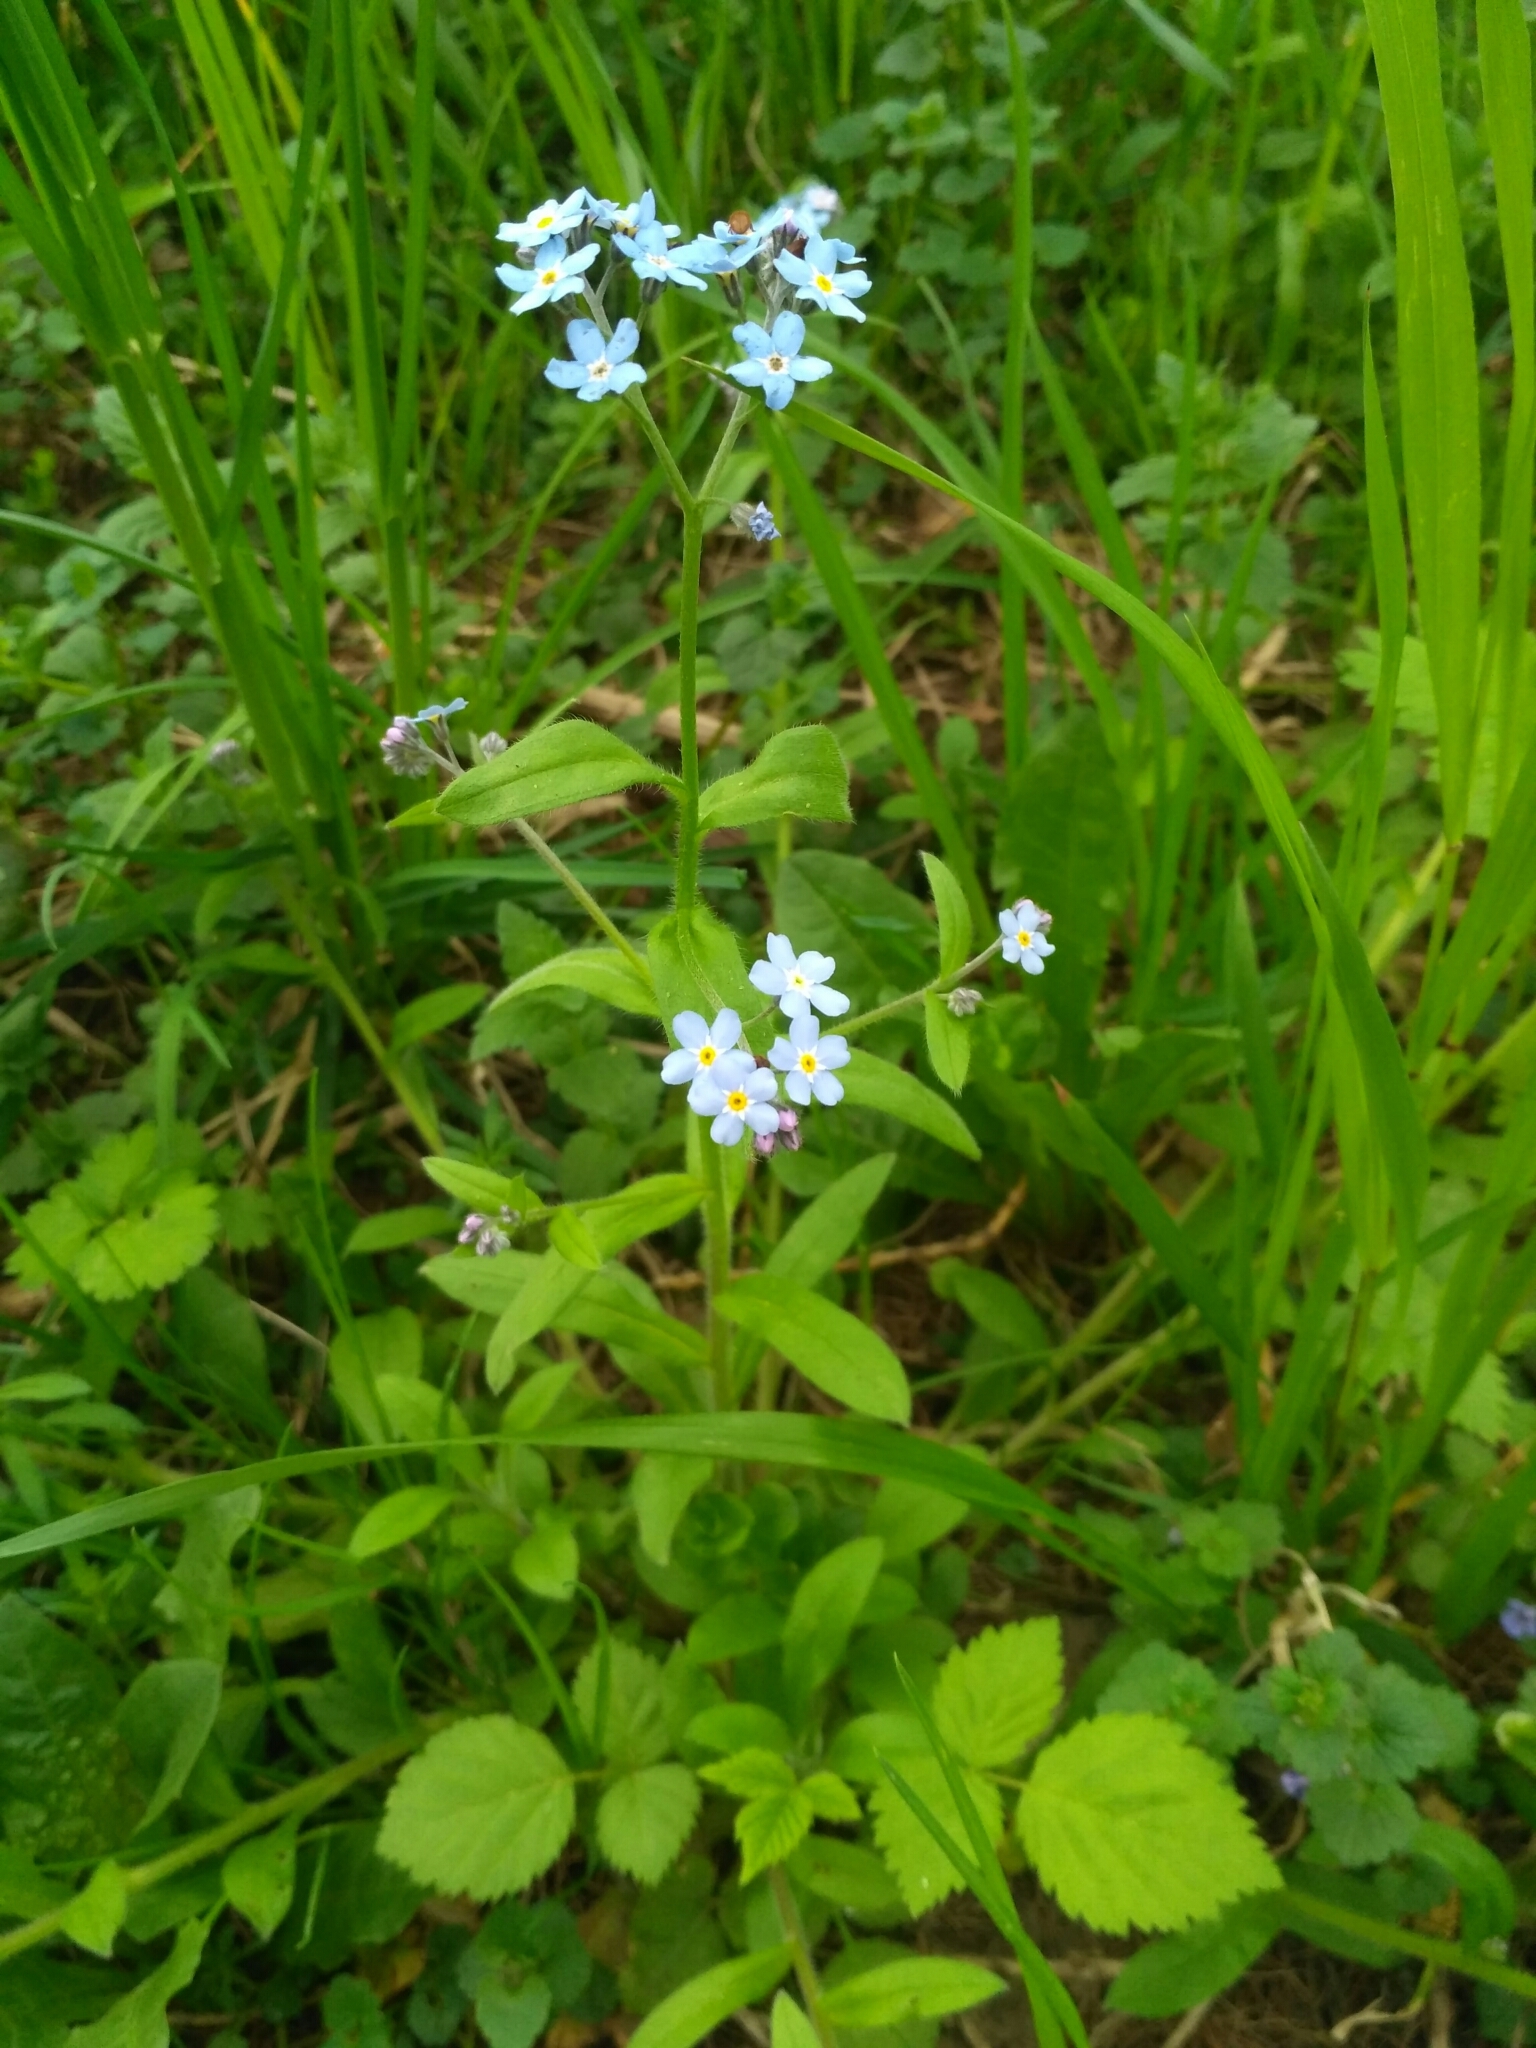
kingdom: Plantae
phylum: Tracheophyta
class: Magnoliopsida
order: Boraginales
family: Boraginaceae
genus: Myosotis
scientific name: Myosotis sylvatica
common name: Wood forget-me-not
